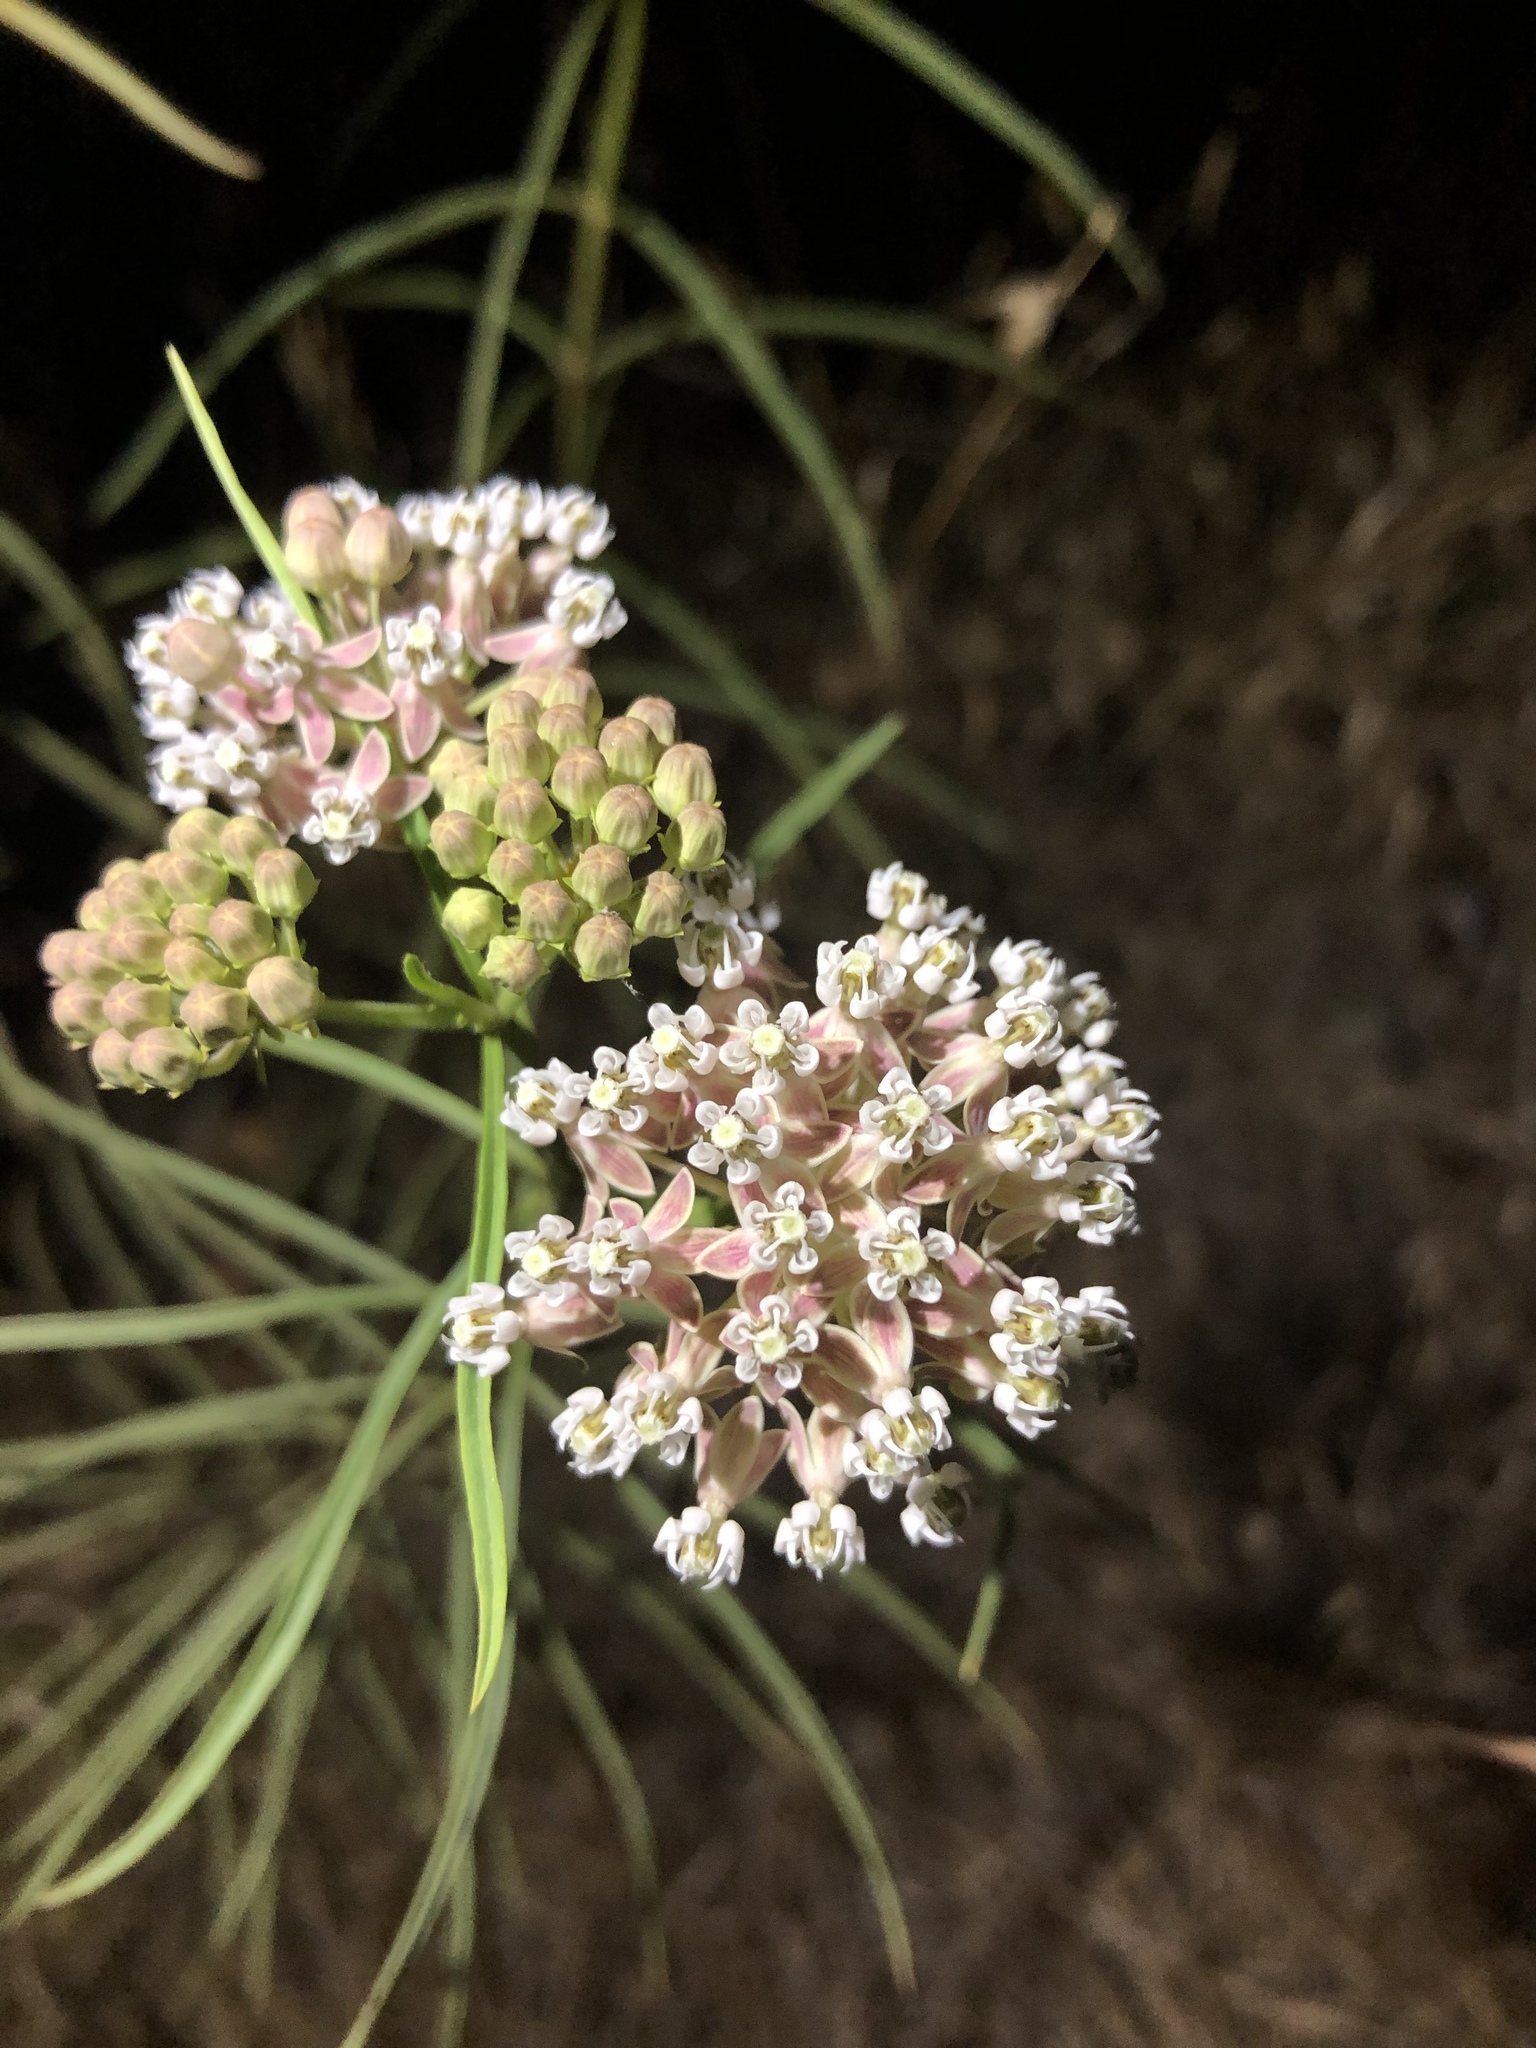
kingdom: Plantae
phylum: Tracheophyta
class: Magnoliopsida
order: Gentianales
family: Apocynaceae
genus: Asclepias
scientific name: Asclepias fascicularis
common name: Mexican milkweed
